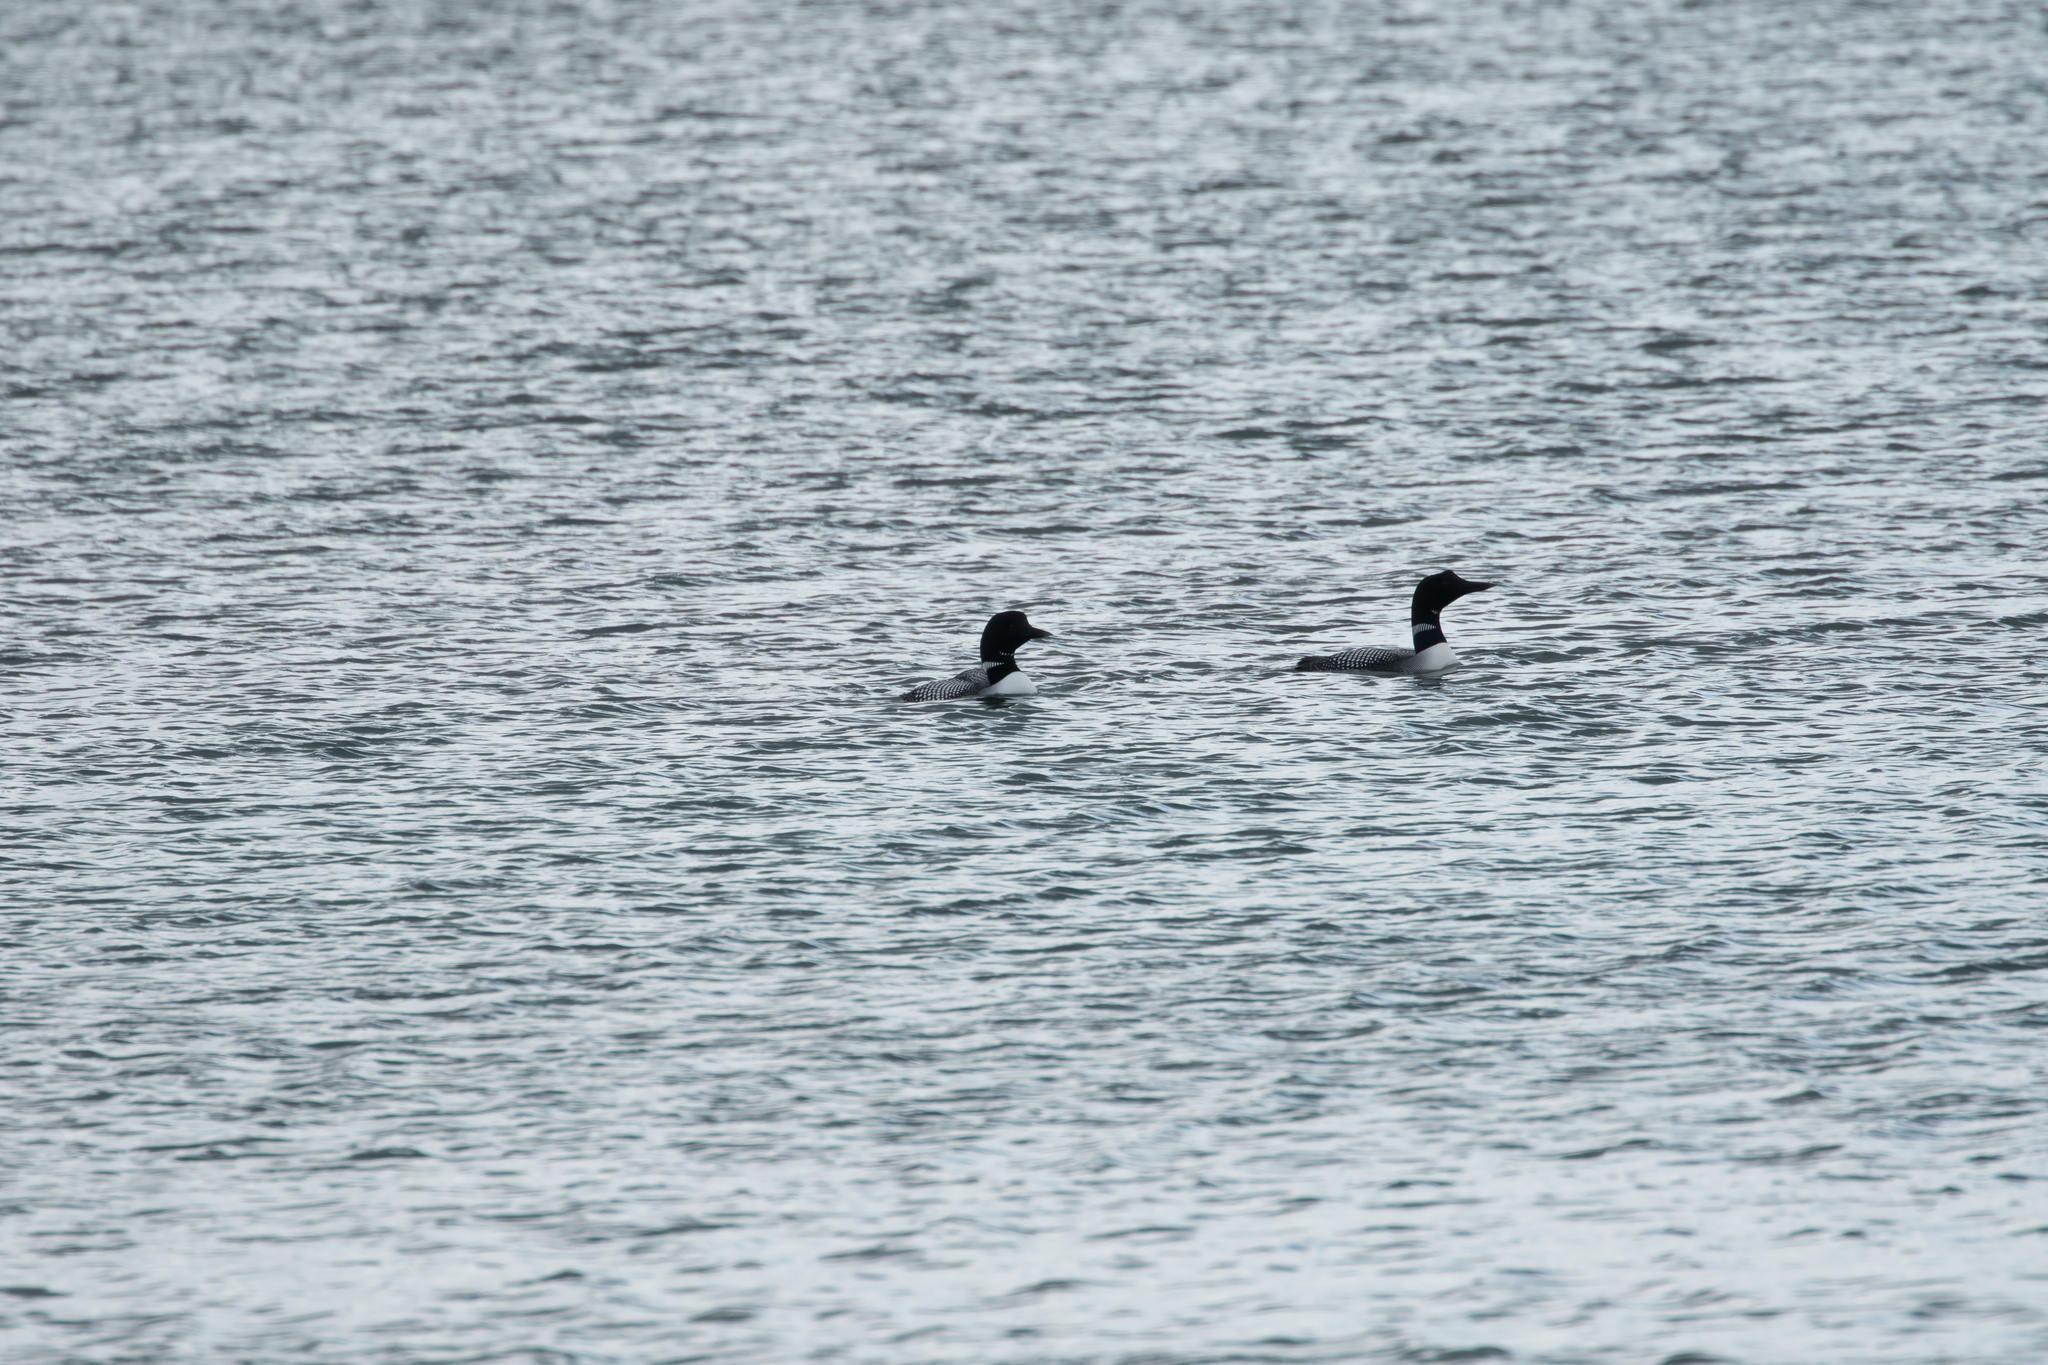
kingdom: Animalia
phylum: Chordata
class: Aves
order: Gaviiformes
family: Gaviidae
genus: Gavia
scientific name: Gavia immer
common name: Common loon
